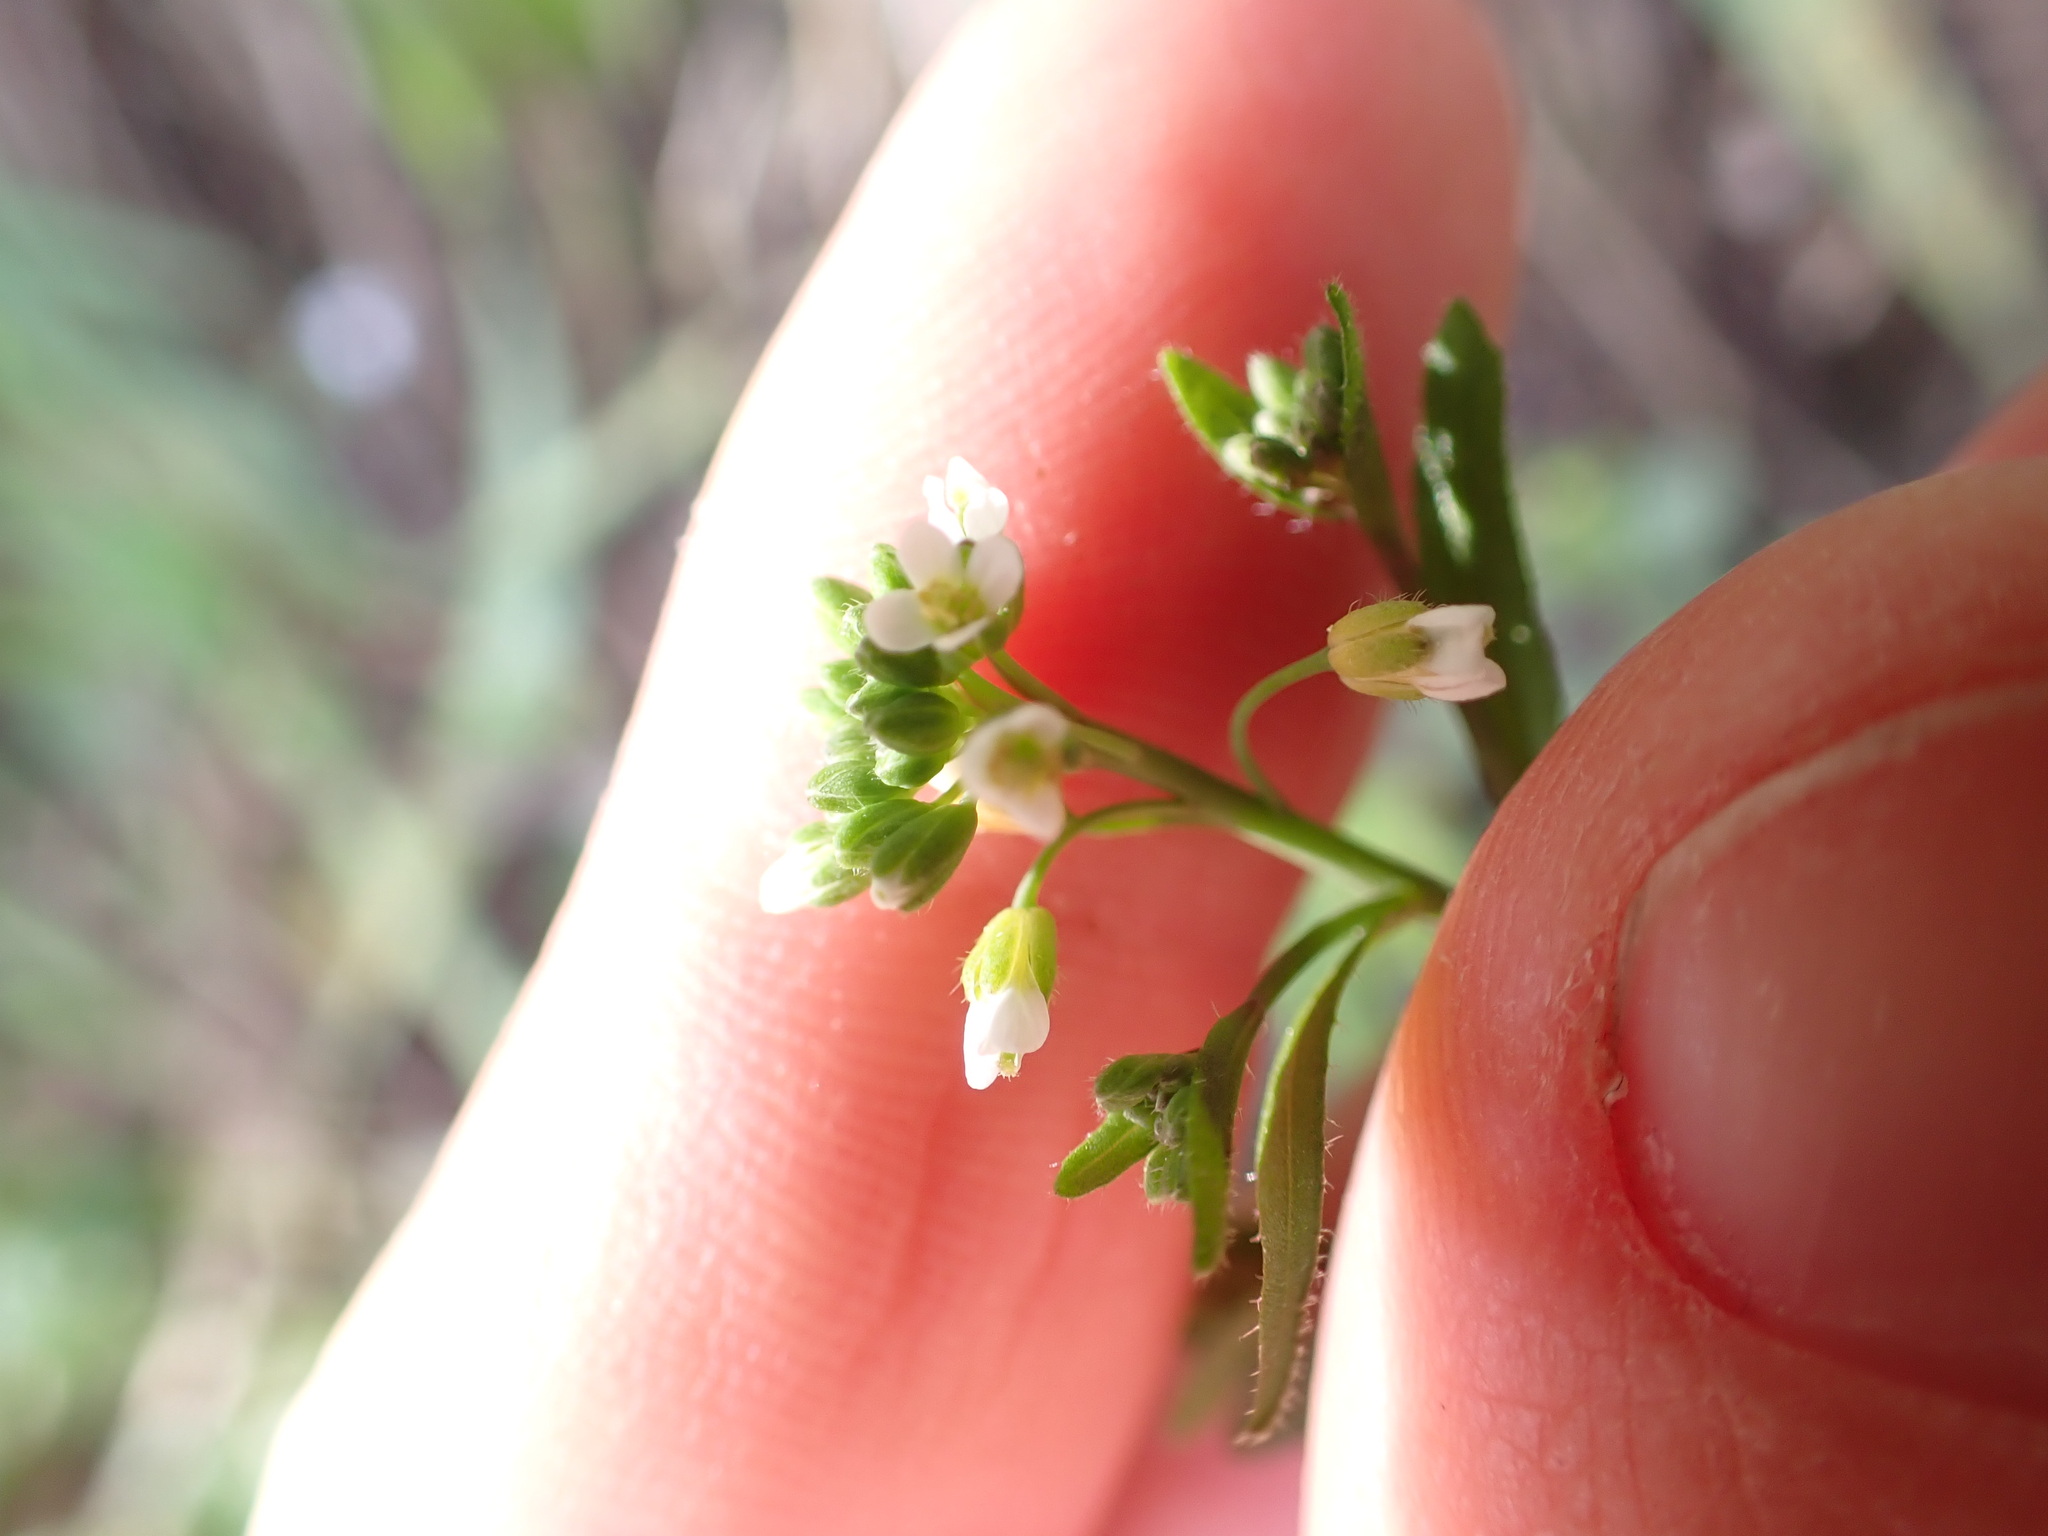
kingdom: Plantae
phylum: Tracheophyta
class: Magnoliopsida
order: Brassicales
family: Brassicaceae
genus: Arabidopsis
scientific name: Arabidopsis thaliana
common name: Thale cress
